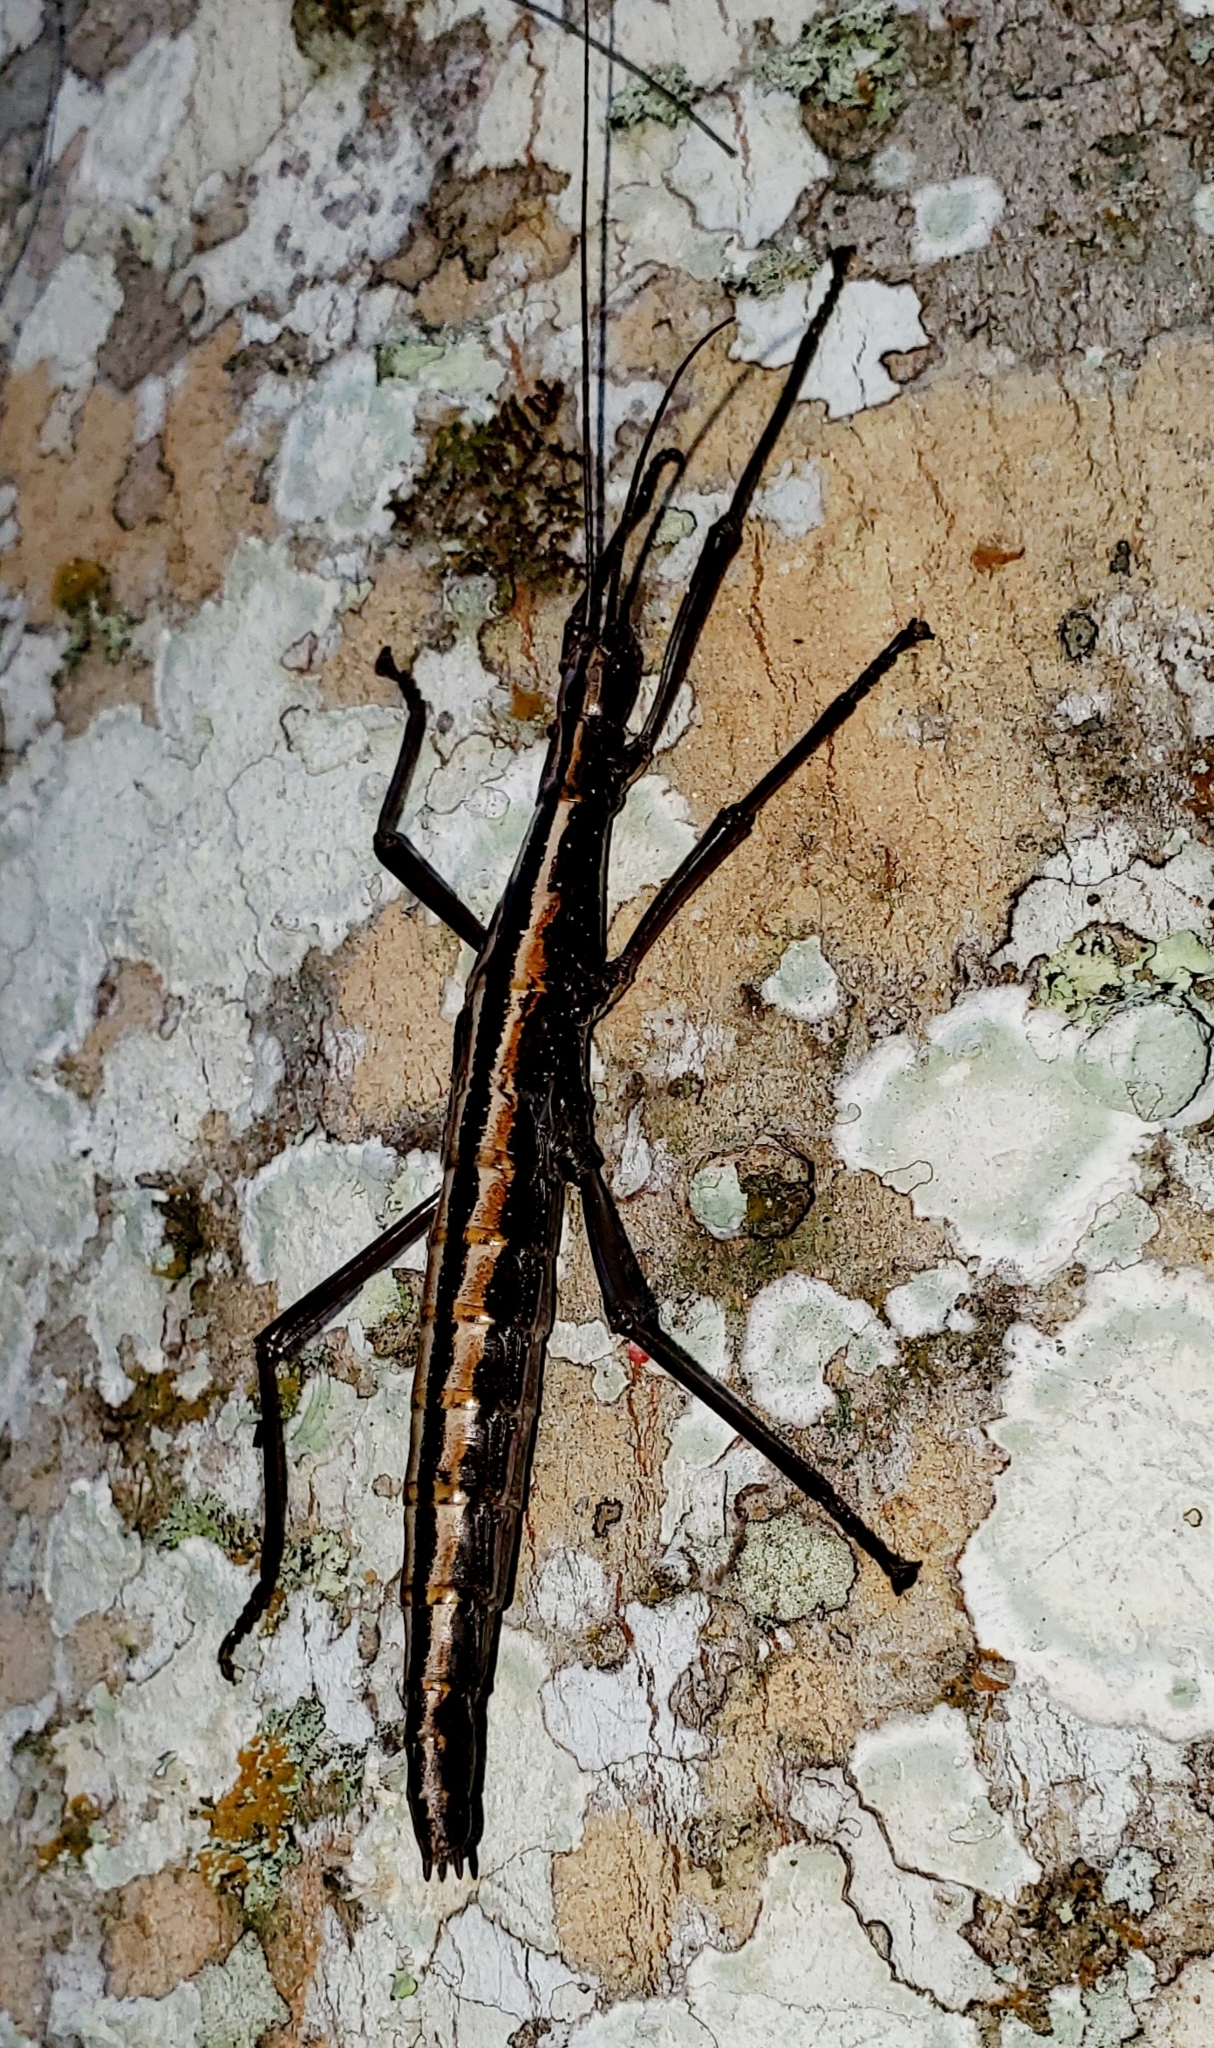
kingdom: Animalia
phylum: Arthropoda
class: Insecta
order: Phasmida
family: Pseudophasmatidae
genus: Anisomorpha
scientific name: Anisomorpha buprestoides
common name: Florida stick insect
